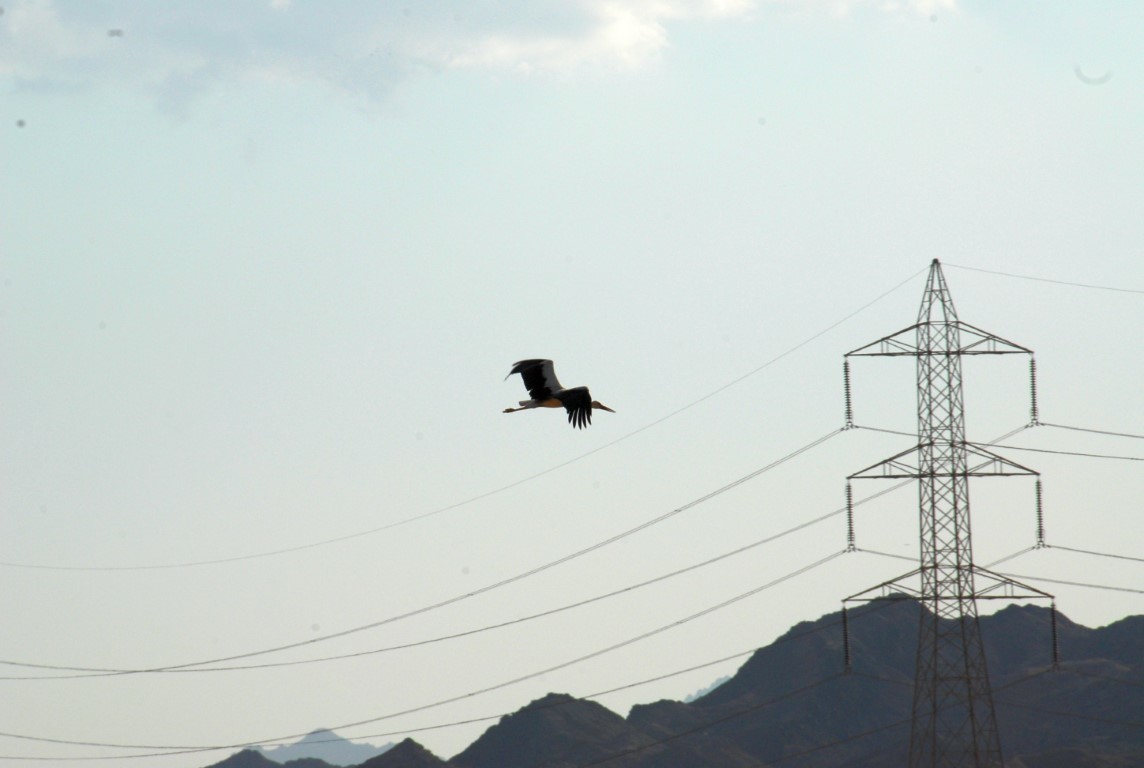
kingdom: Animalia
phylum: Chordata
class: Aves
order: Ciconiiformes
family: Ciconiidae
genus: Ciconia
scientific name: Ciconia ciconia
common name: White stork
